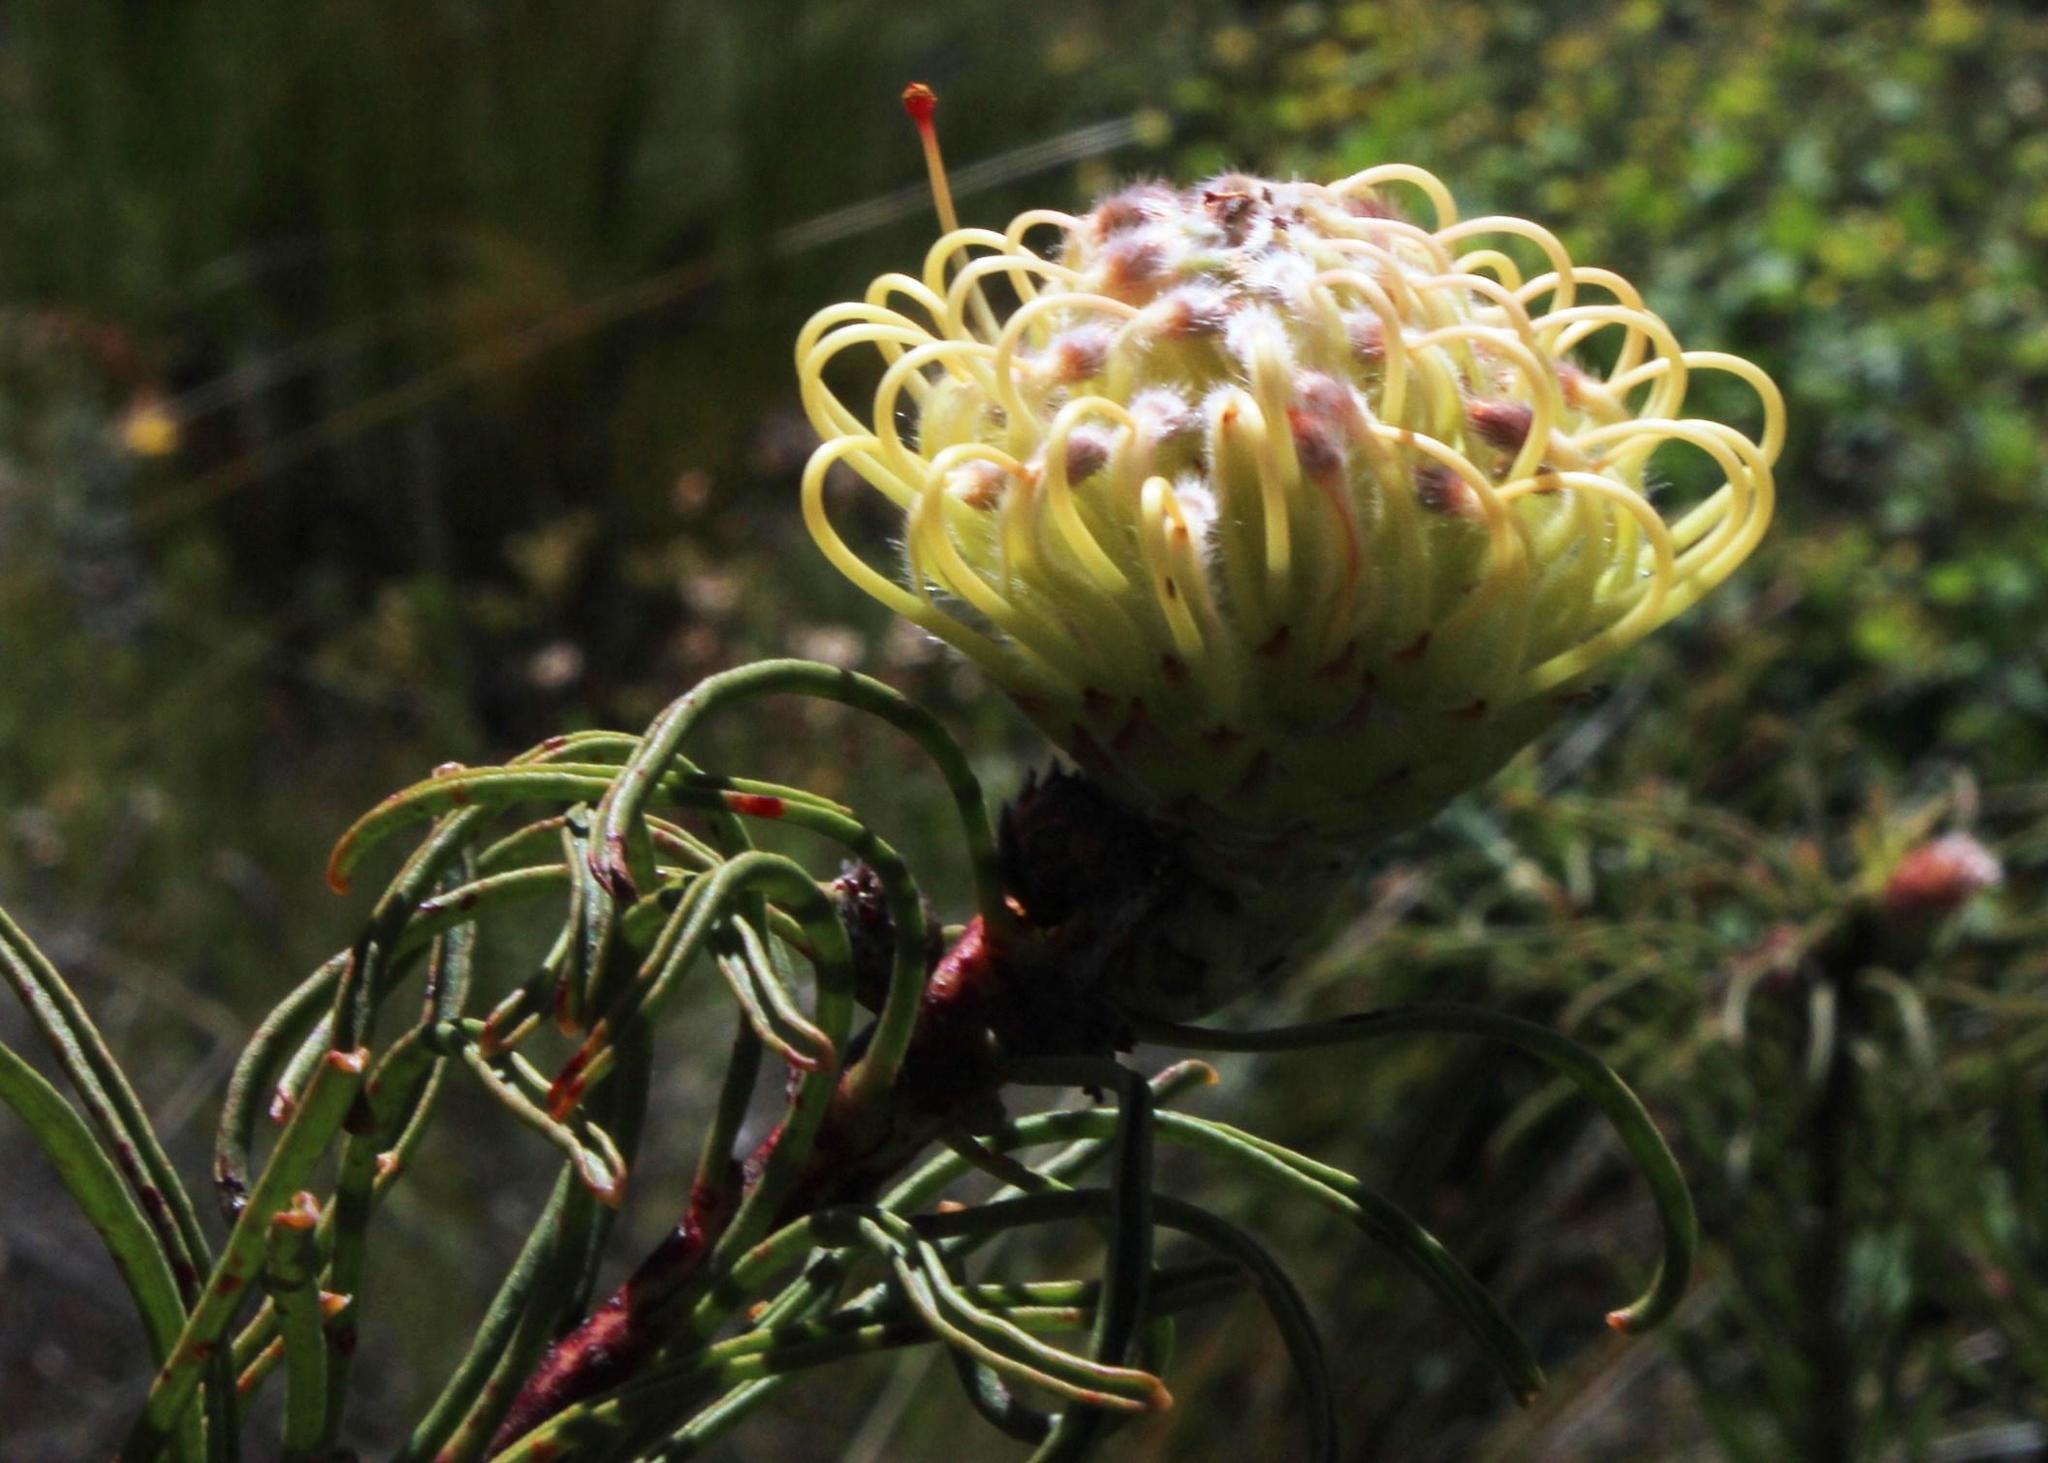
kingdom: Plantae
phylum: Tracheophyta
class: Magnoliopsida
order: Proteales
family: Proteaceae
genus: Leucospermum
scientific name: Leucospermum lineare
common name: Needle-leaf pincushion
